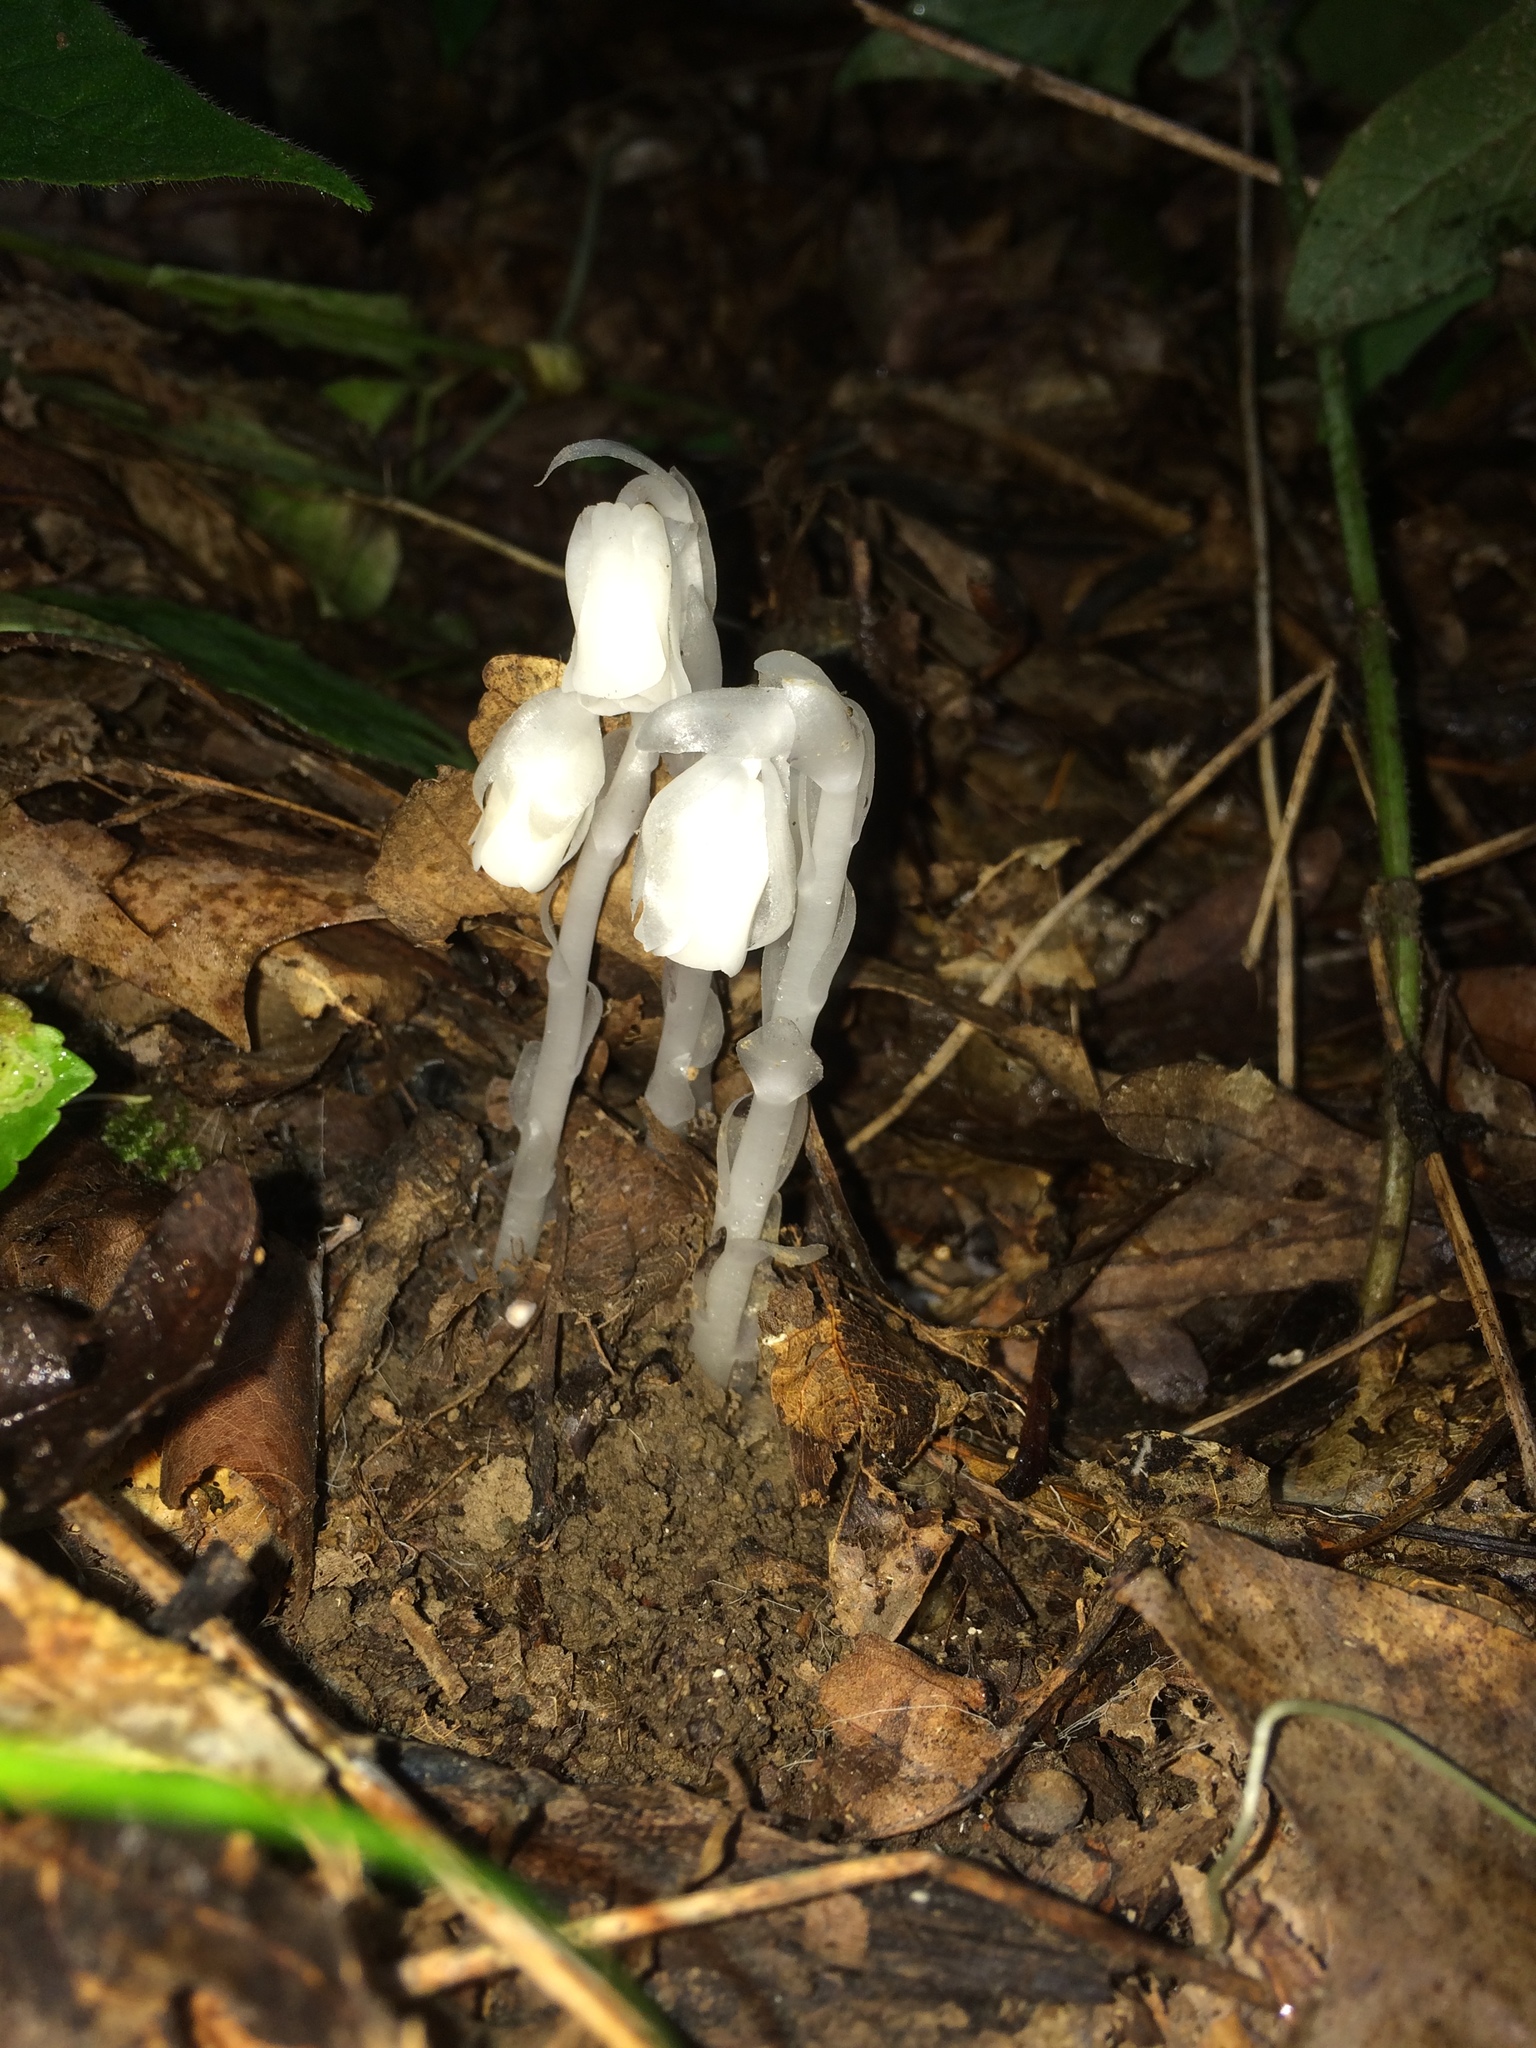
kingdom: Plantae
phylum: Tracheophyta
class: Magnoliopsida
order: Ericales
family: Ericaceae
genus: Monotropa
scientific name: Monotropa uniflora
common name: Convulsion root
